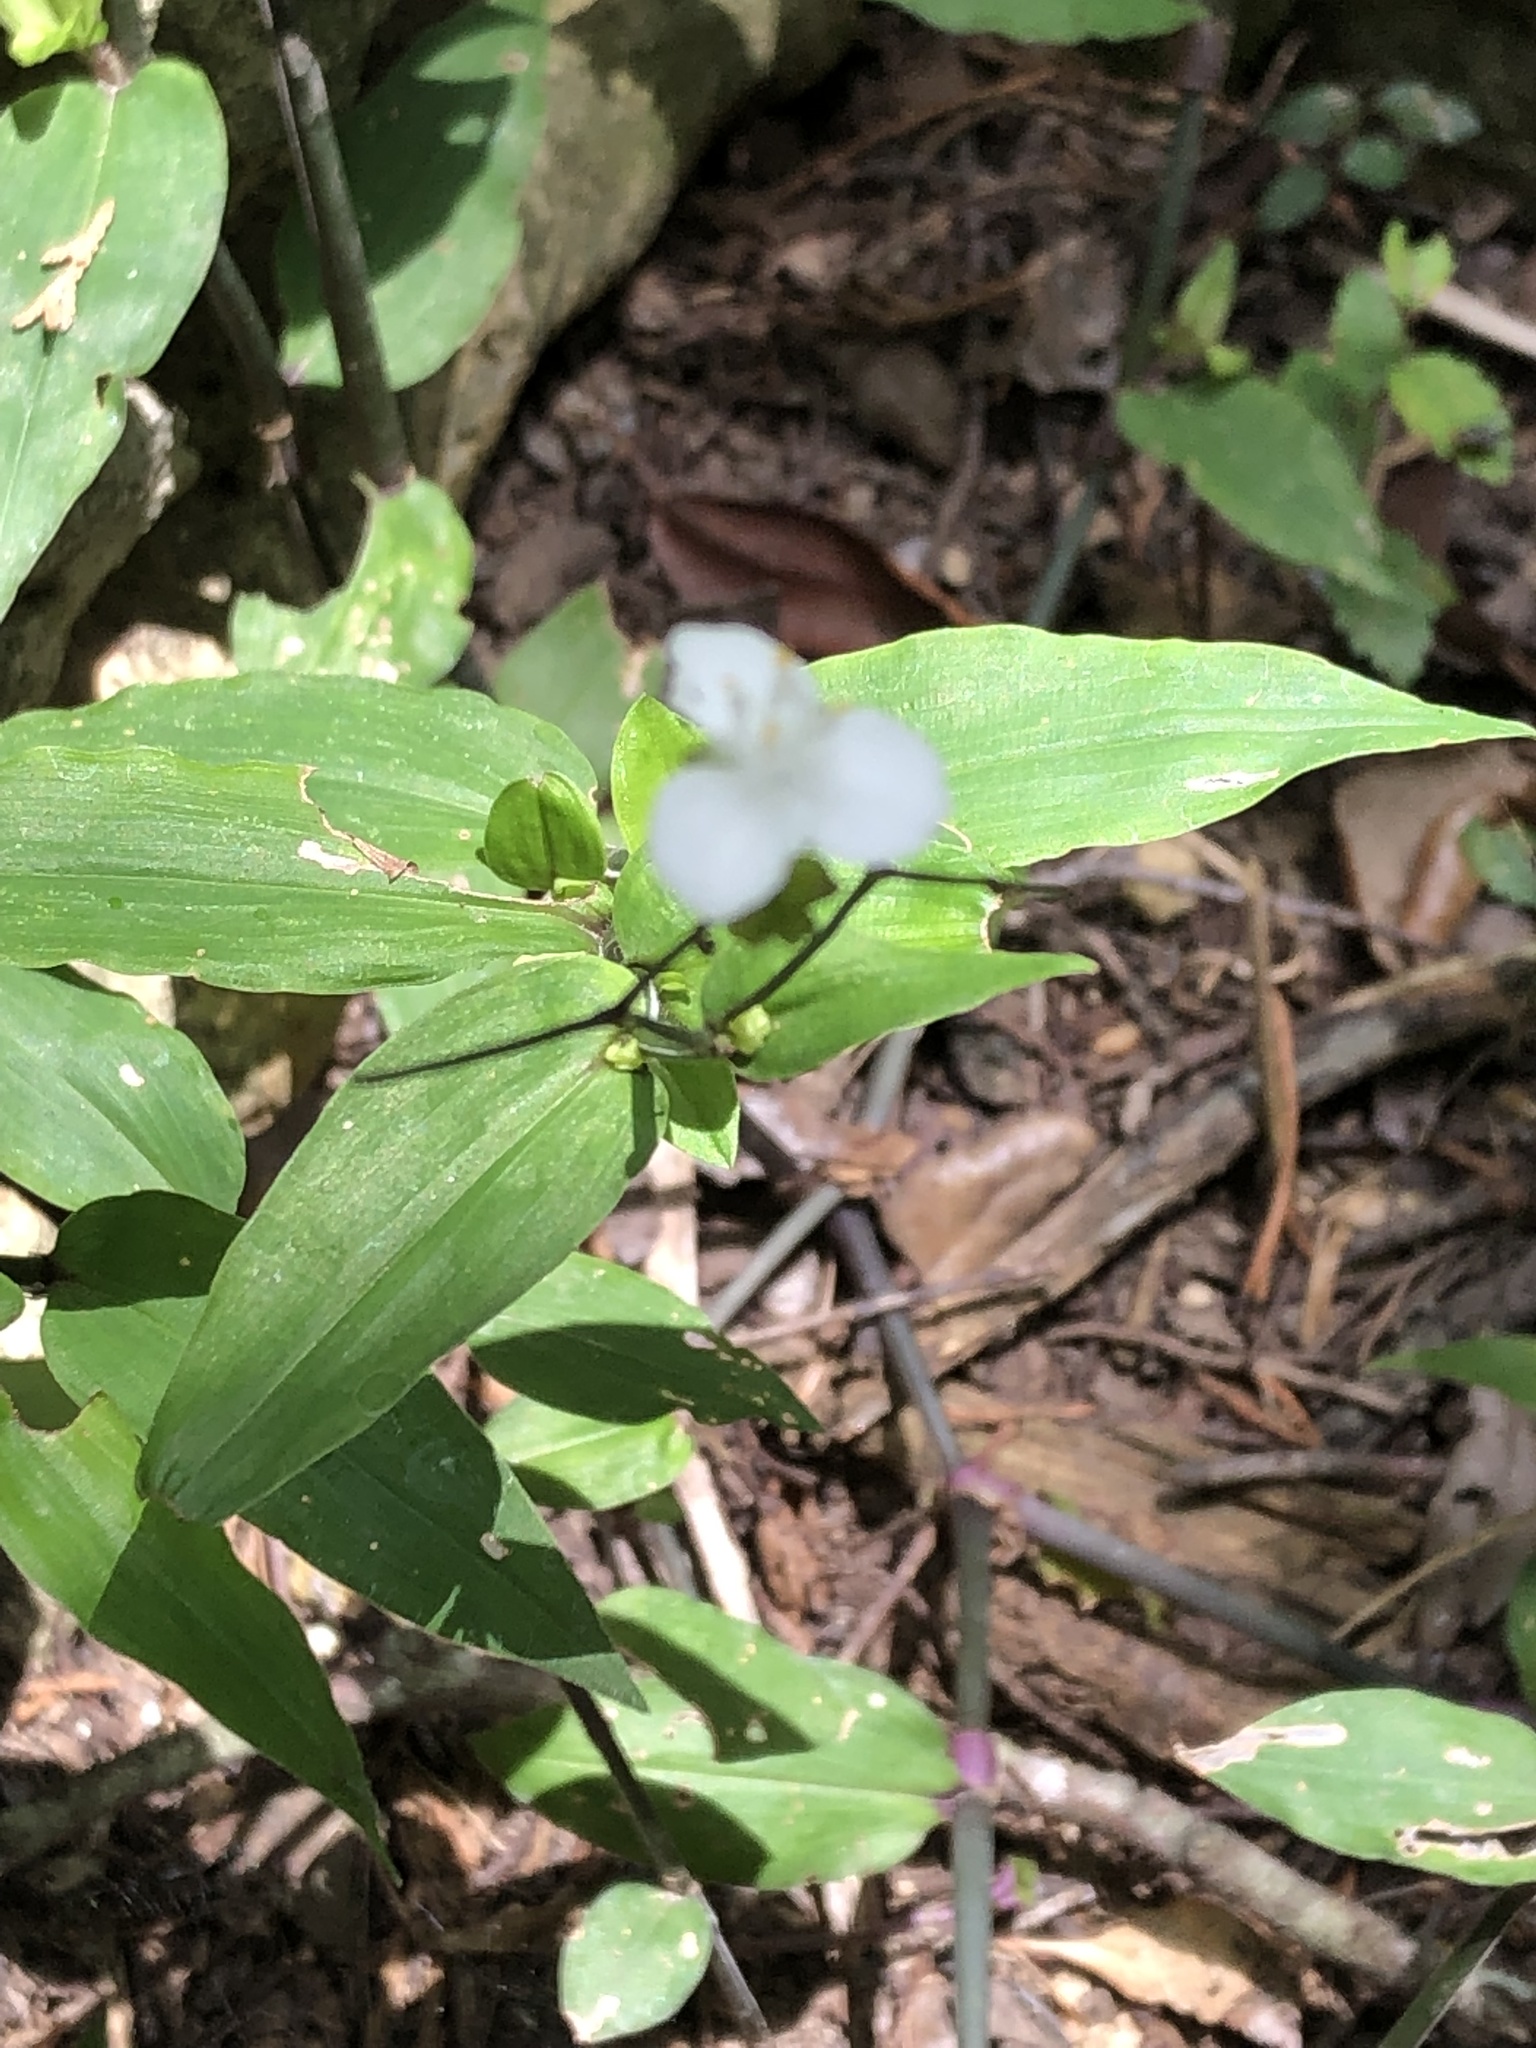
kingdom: Plantae
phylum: Tracheophyta
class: Liliopsida
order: Commelinales
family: Commelinaceae
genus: Gibasis
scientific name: Gibasis pellucida
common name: Dotted bridalveil
